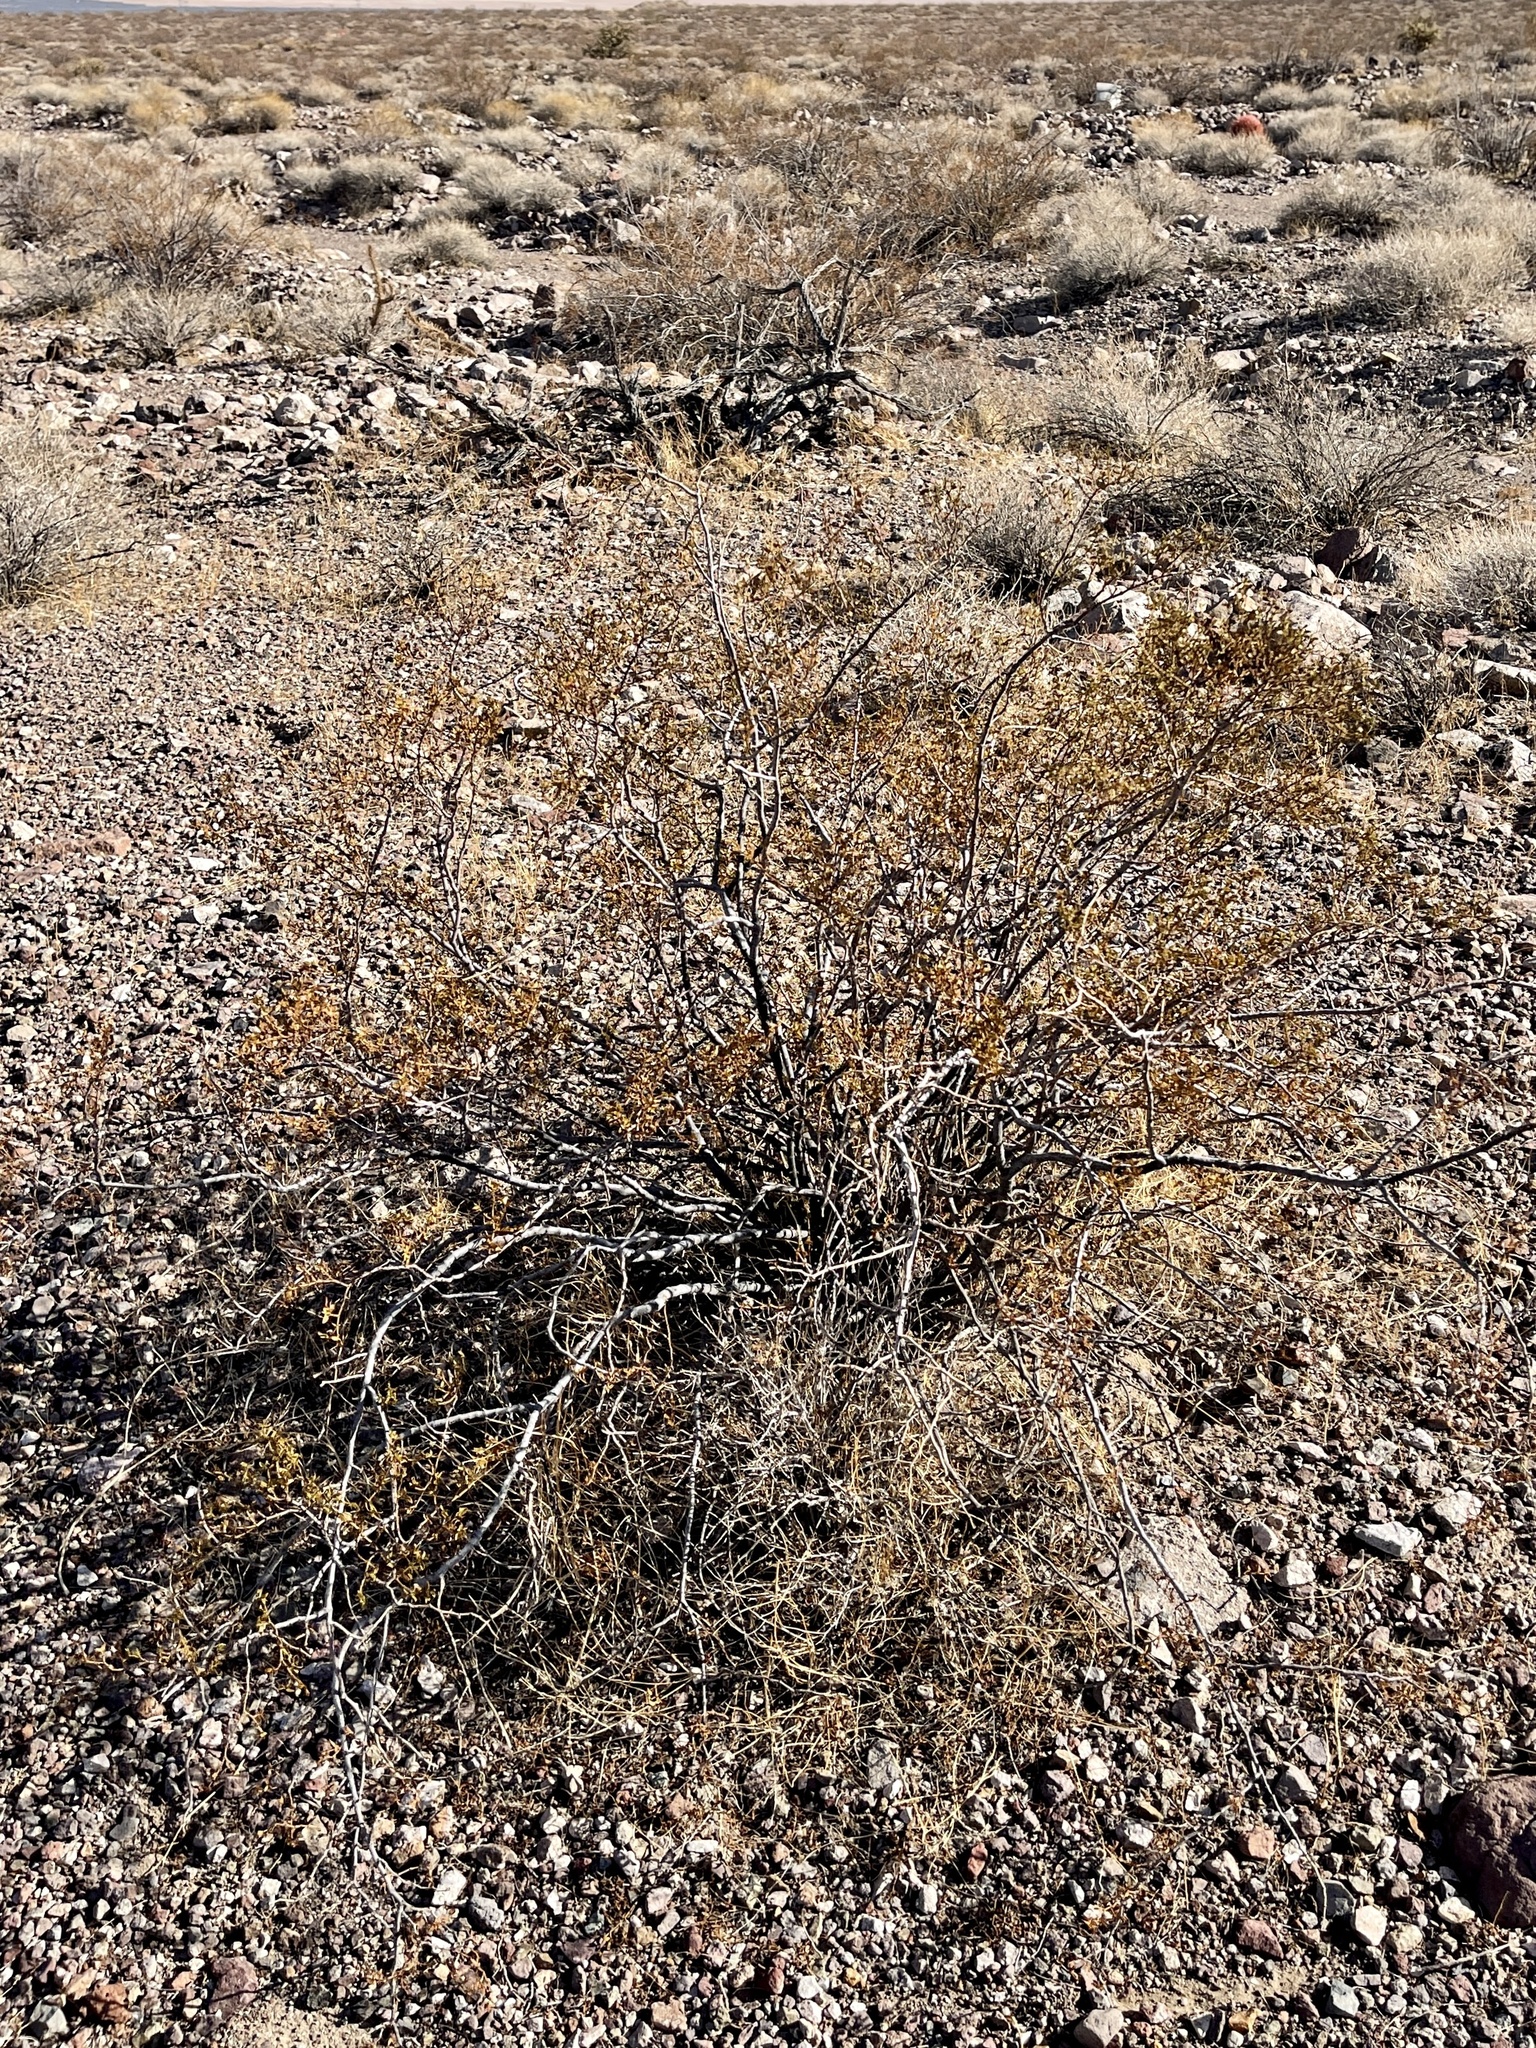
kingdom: Plantae
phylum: Tracheophyta
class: Magnoliopsida
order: Zygophyllales
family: Zygophyllaceae
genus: Larrea
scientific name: Larrea tridentata
